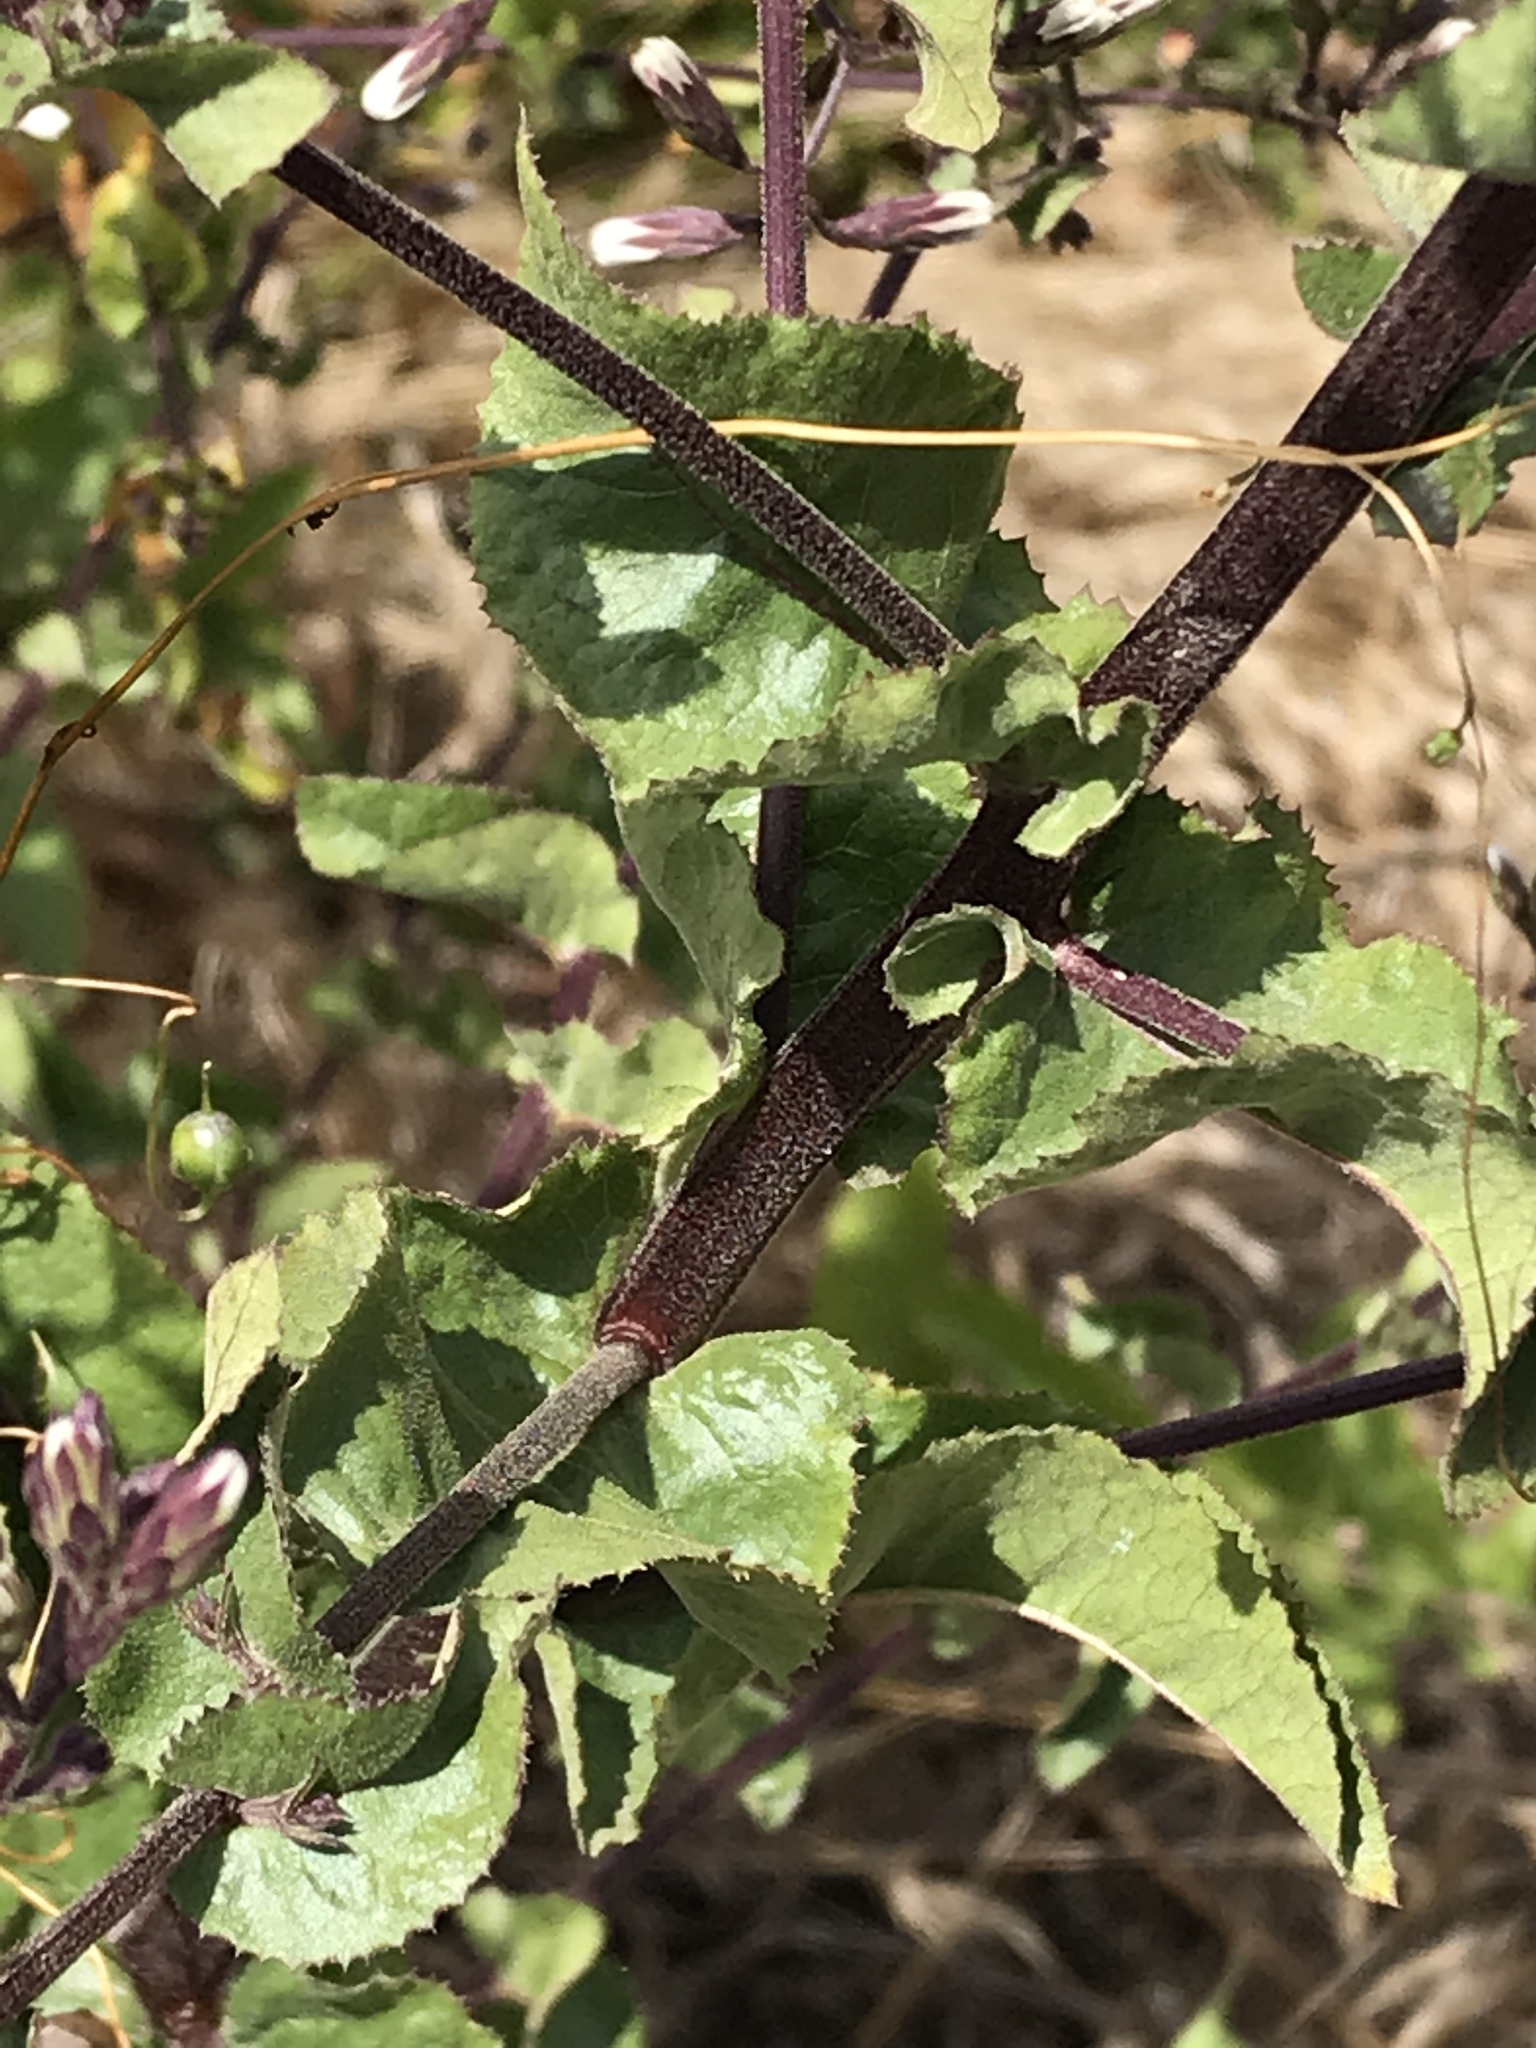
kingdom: Plantae
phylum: Tracheophyta
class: Magnoliopsida
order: Asterales
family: Asteraceae
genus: Acourtia
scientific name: Acourtia microcephala
